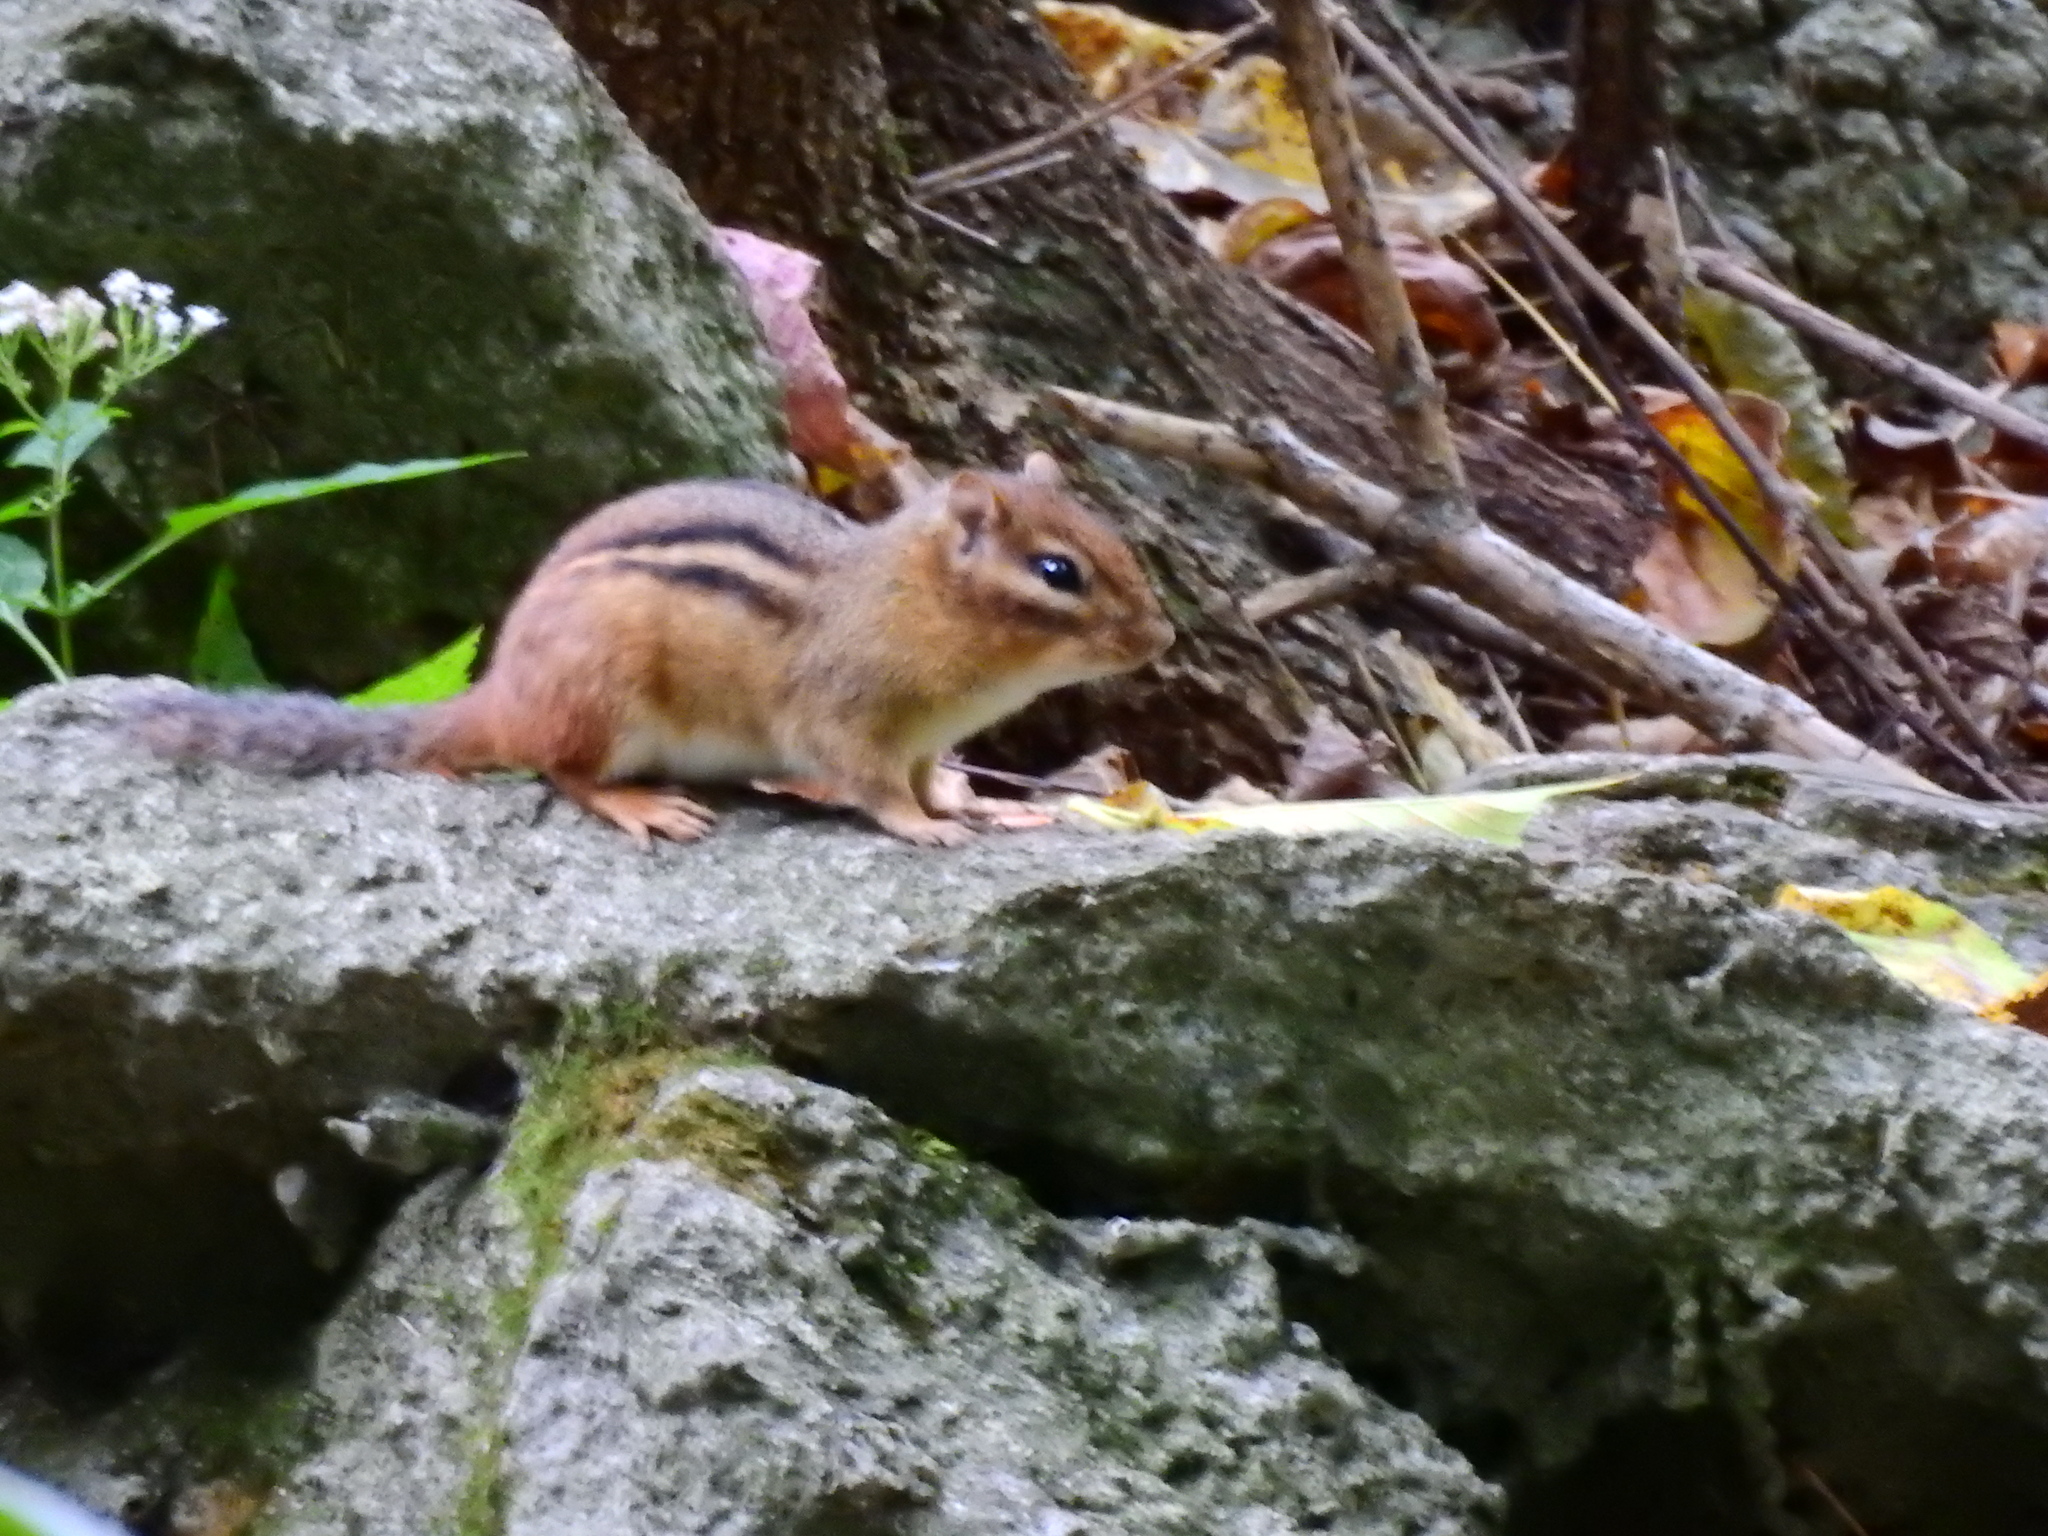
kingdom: Animalia
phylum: Chordata
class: Mammalia
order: Rodentia
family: Sciuridae
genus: Tamias
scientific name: Tamias striatus
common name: Eastern chipmunk
